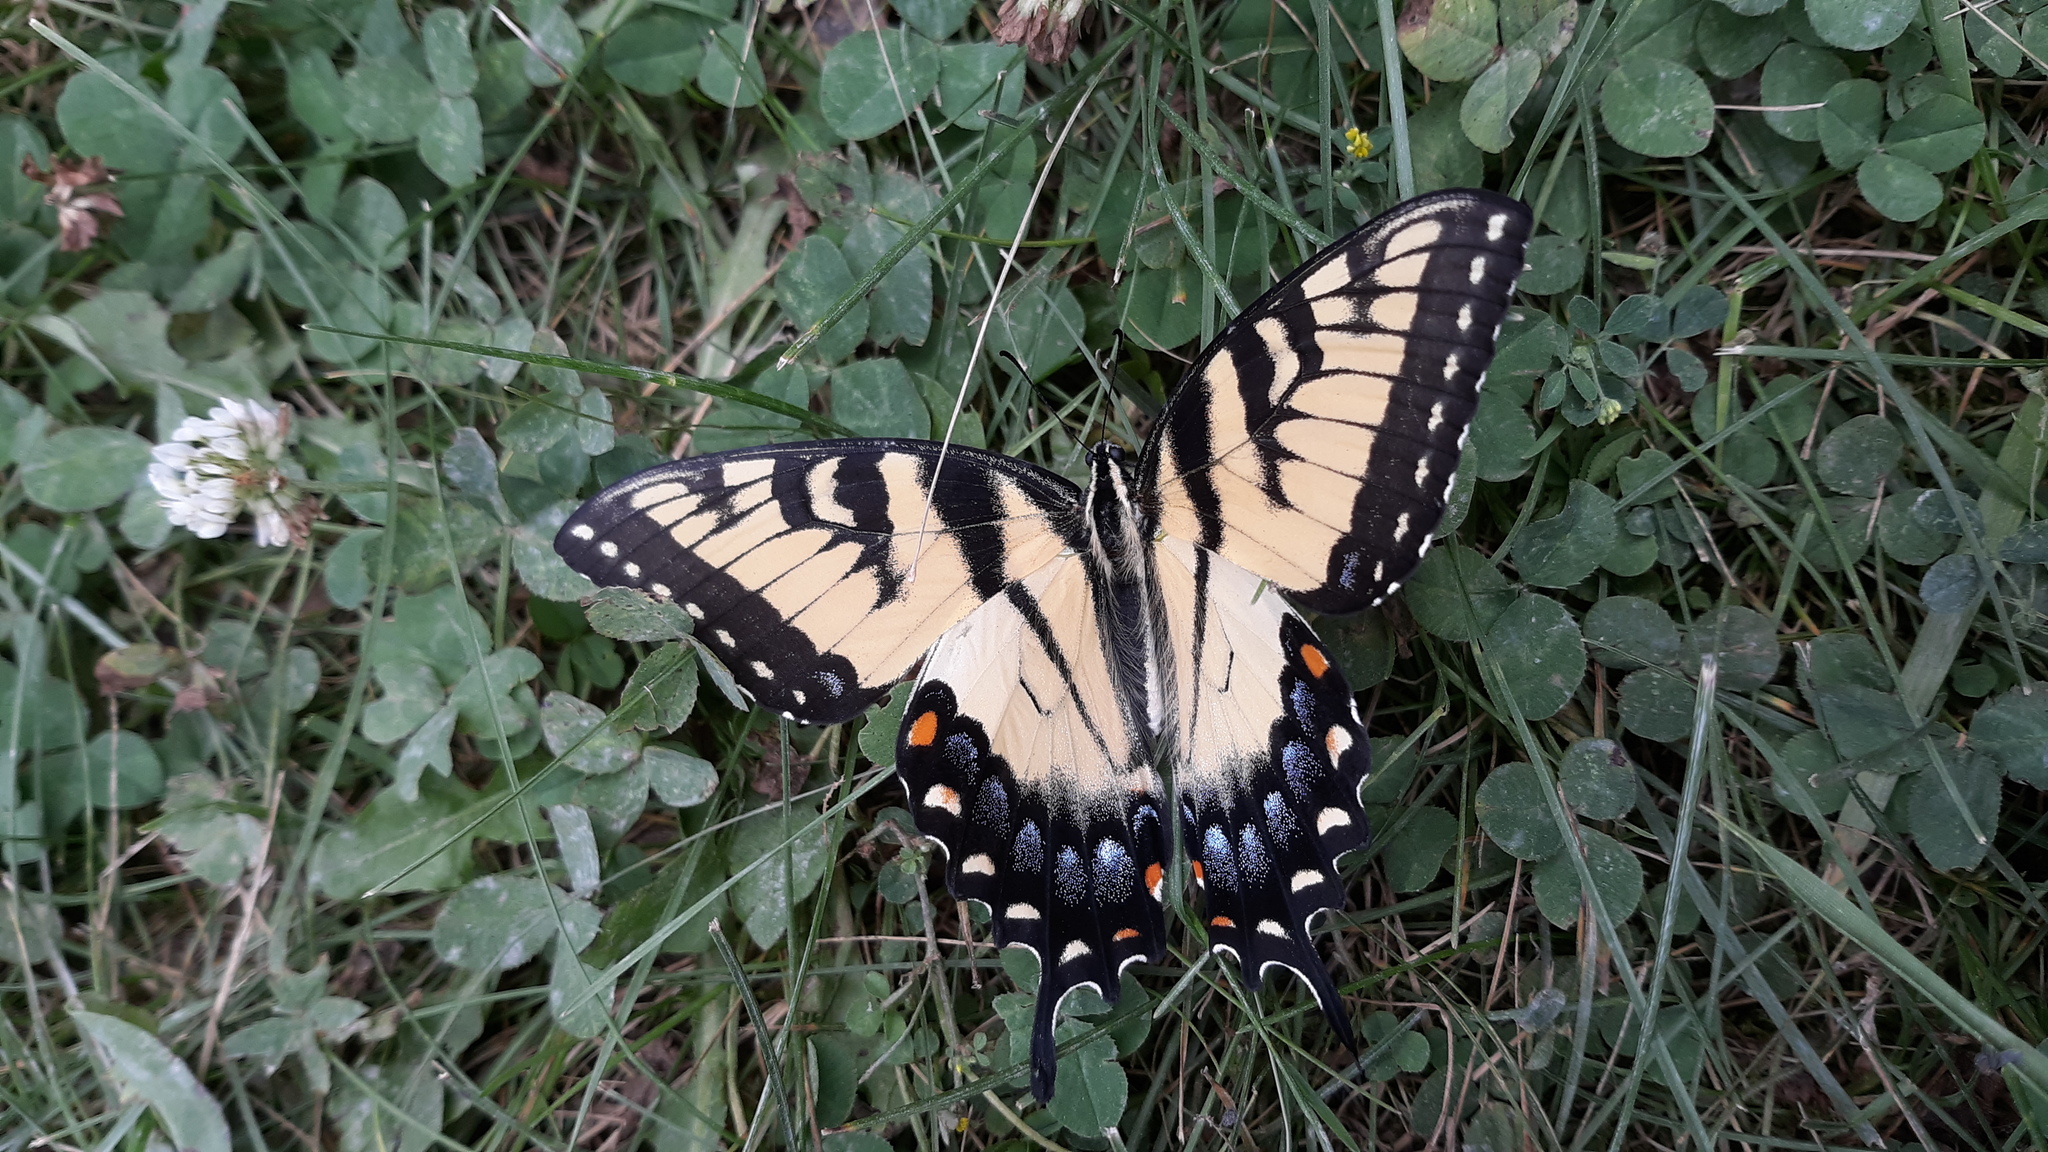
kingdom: Animalia
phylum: Arthropoda
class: Insecta
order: Lepidoptera
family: Papilionidae
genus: Papilio
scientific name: Papilio glaucus
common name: Tiger swallowtail
